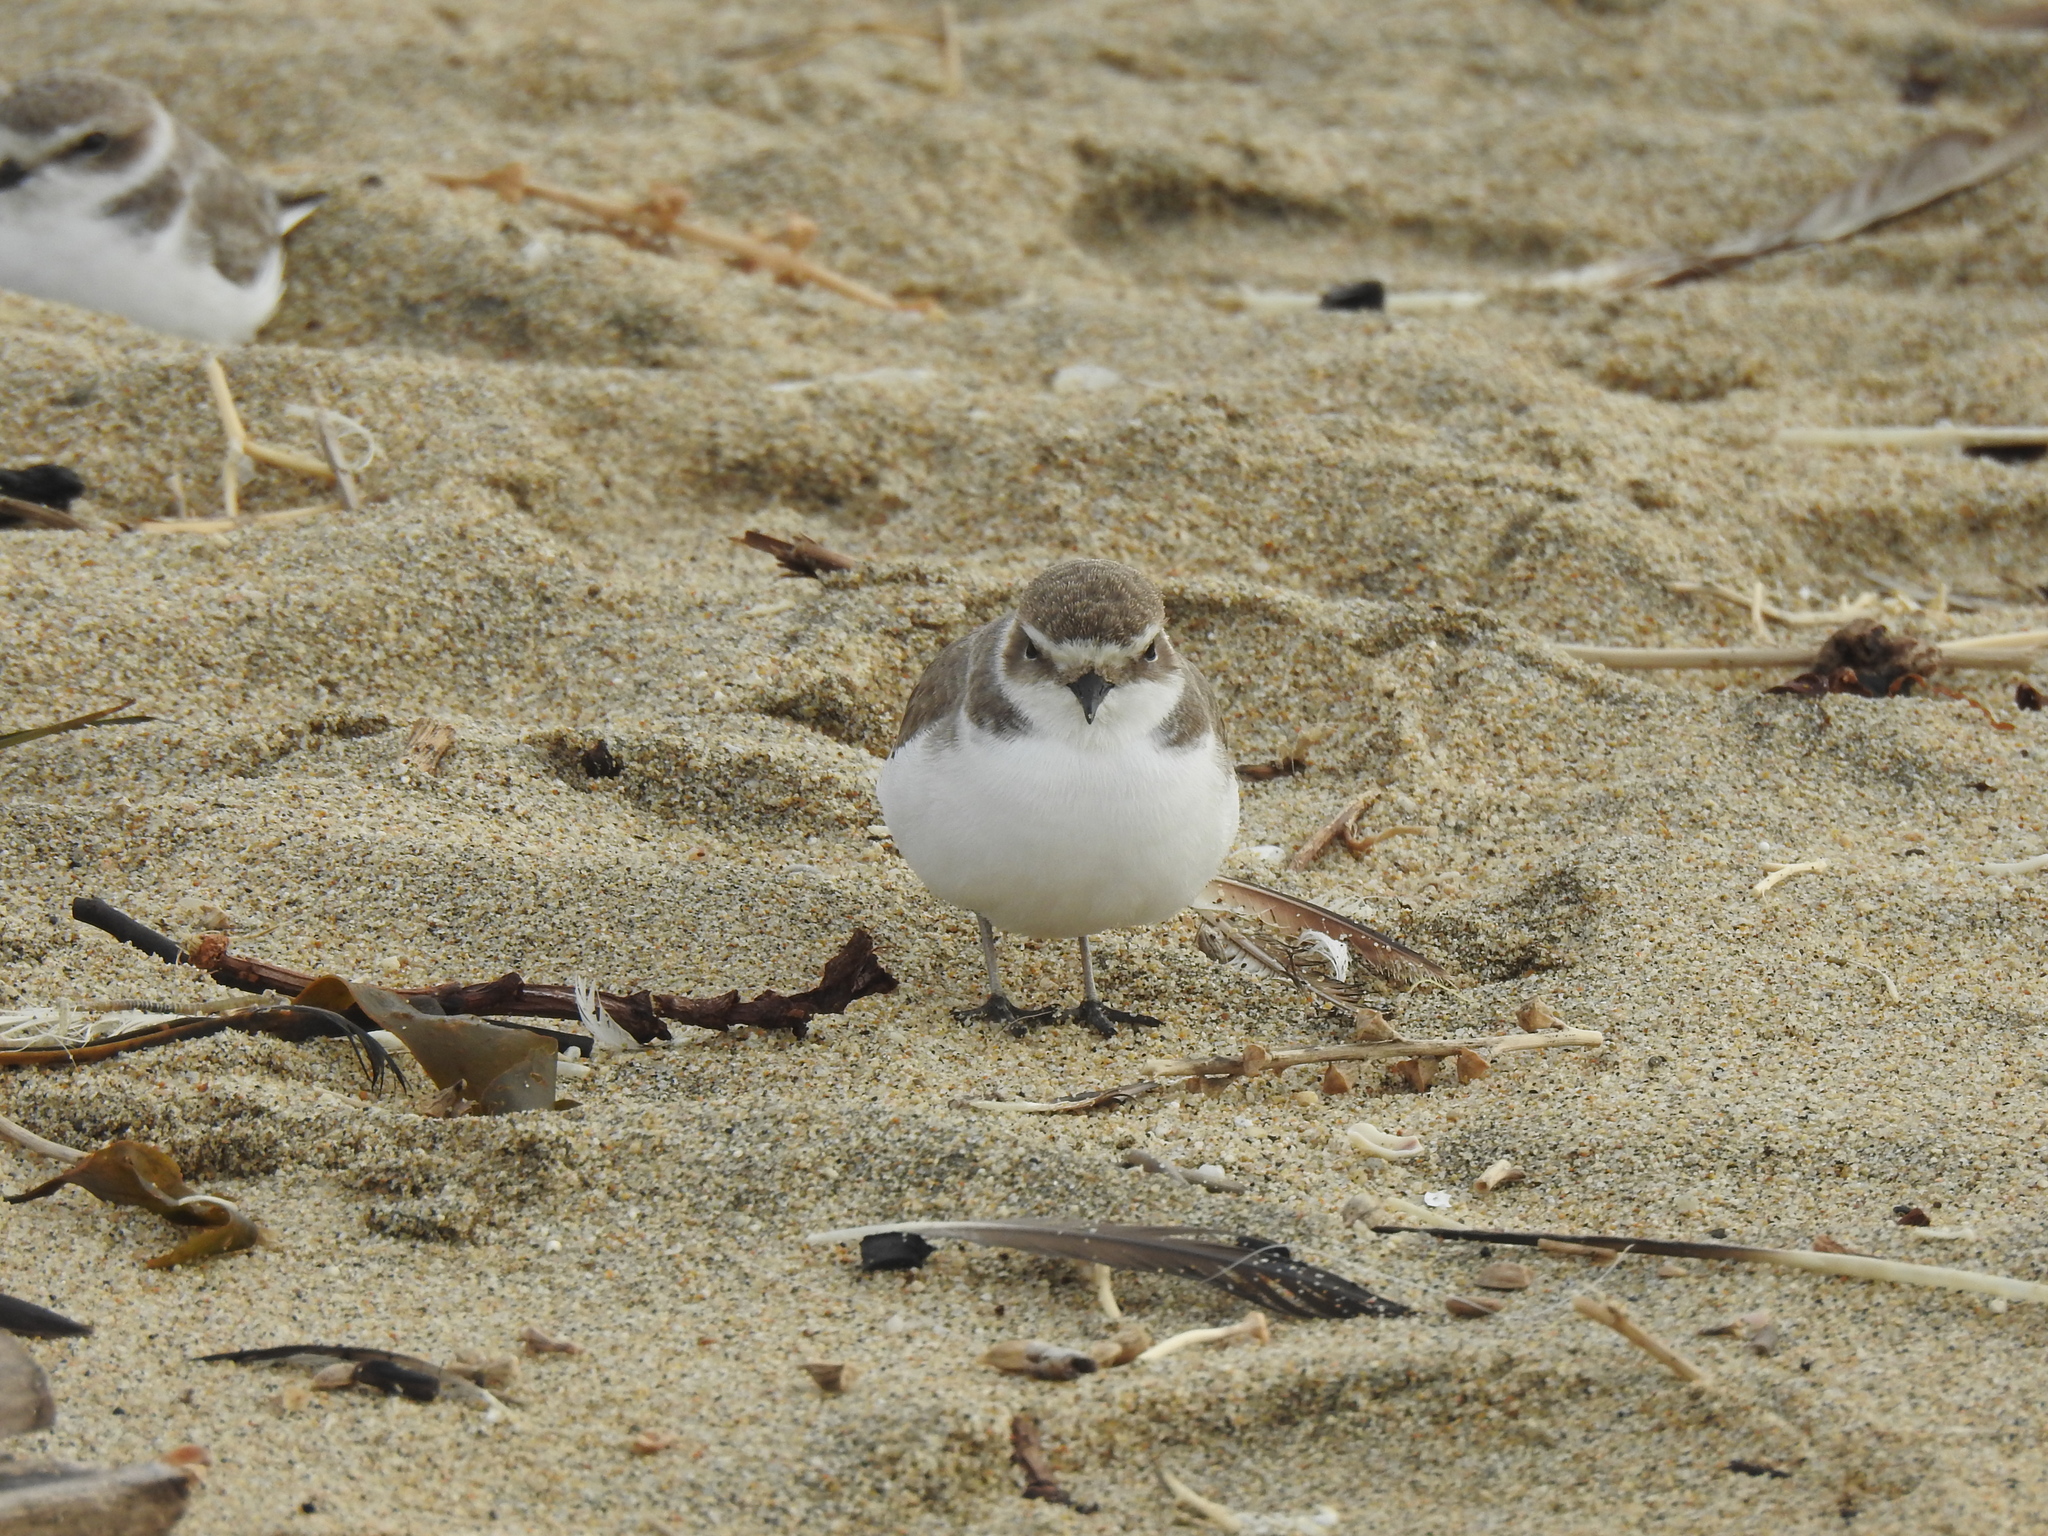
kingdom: Animalia
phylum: Chordata
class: Aves
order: Charadriiformes
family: Charadriidae
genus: Anarhynchus
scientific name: Anarhynchus
